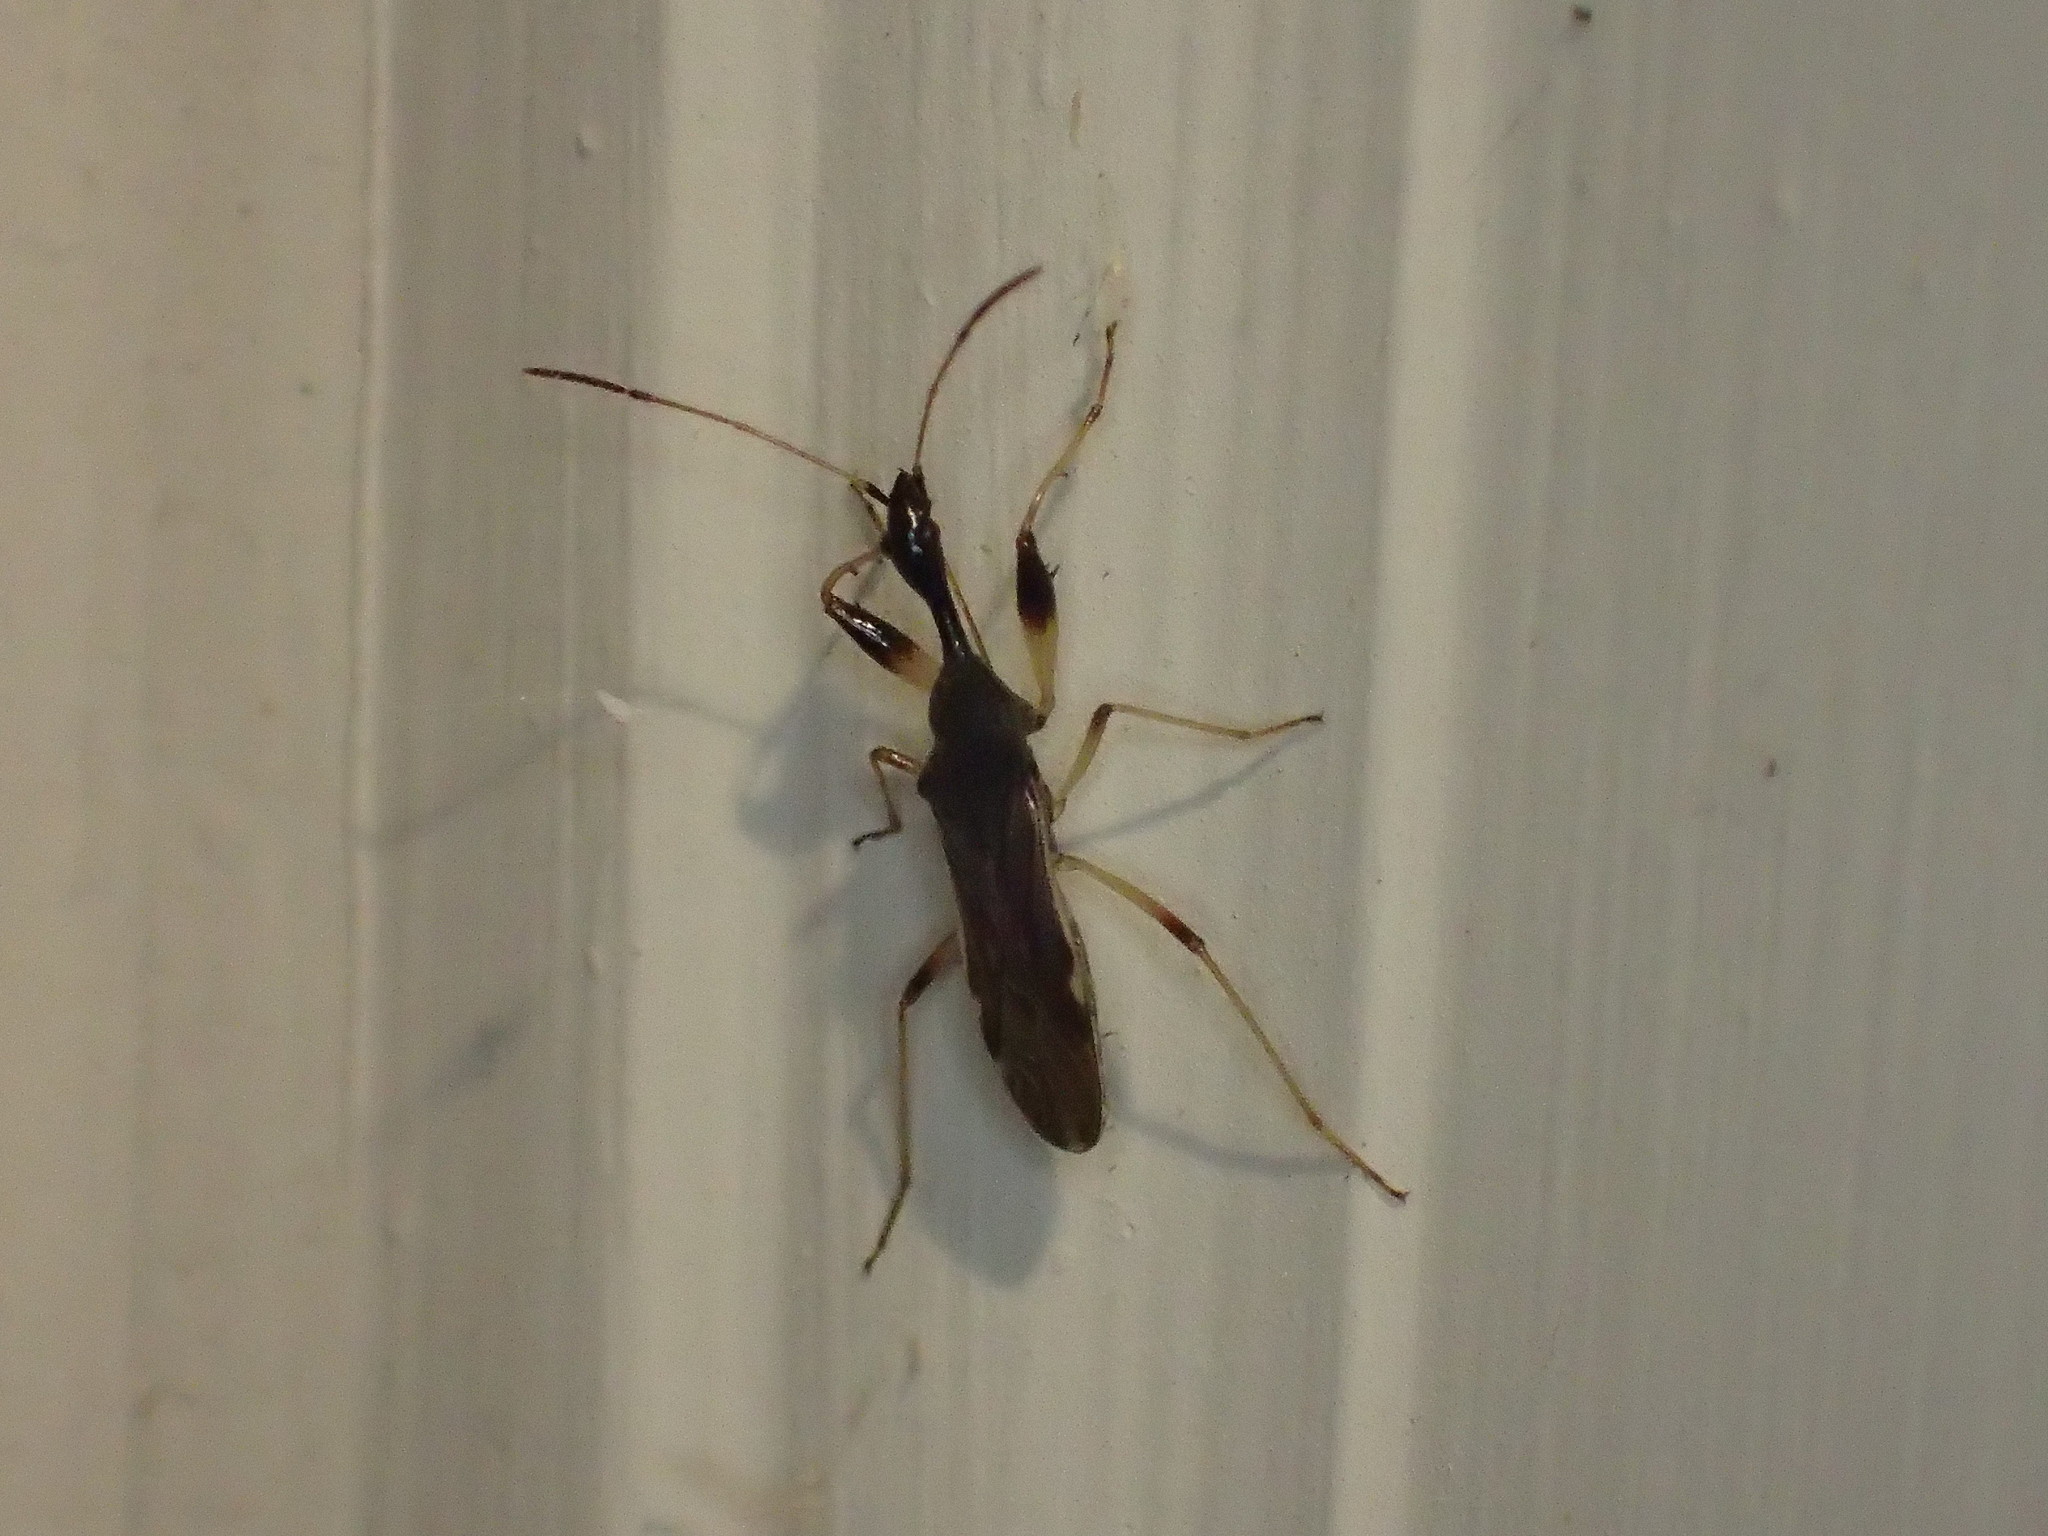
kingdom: Animalia
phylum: Arthropoda
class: Insecta
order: Hemiptera
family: Rhyparochromidae
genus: Myodocha
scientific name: Myodocha serripes
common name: Long-necked seed bug
